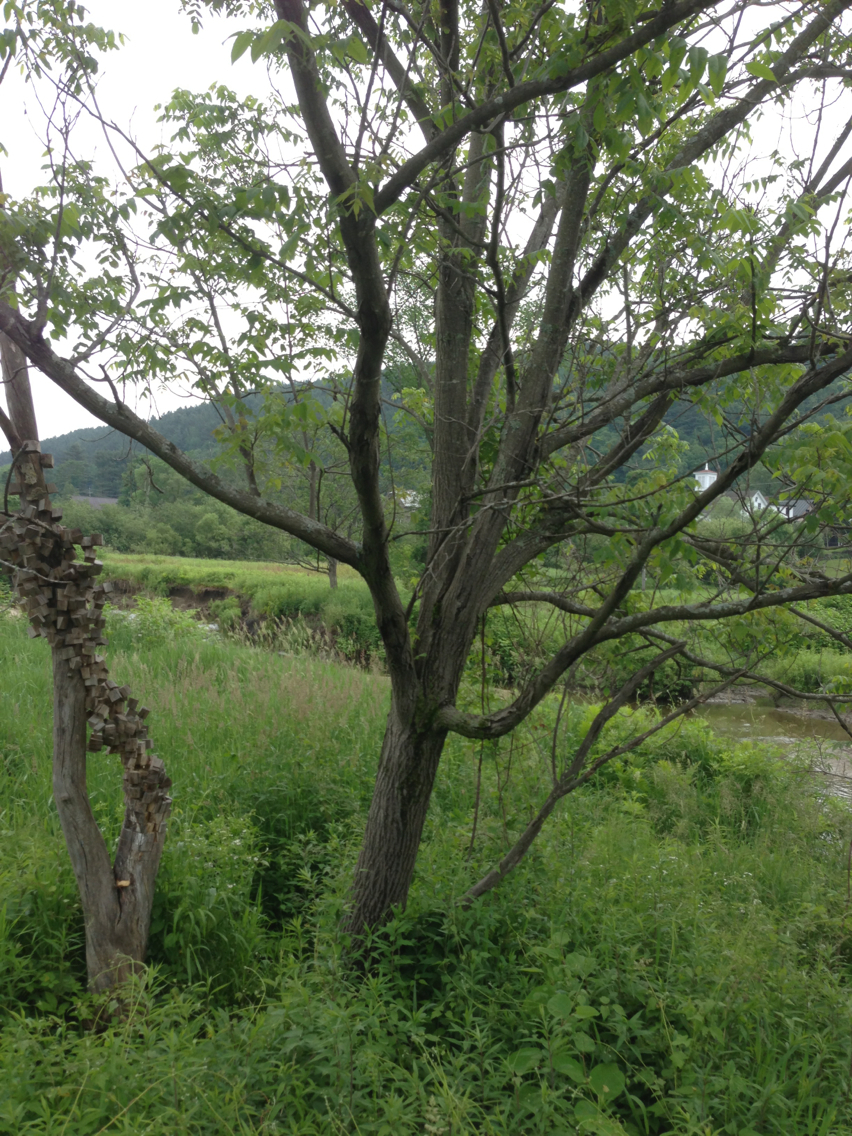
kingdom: Plantae
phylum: Tracheophyta
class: Magnoliopsida
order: Fagales
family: Juglandaceae
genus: Juglans
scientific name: Juglans cinerea
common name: Butternut
